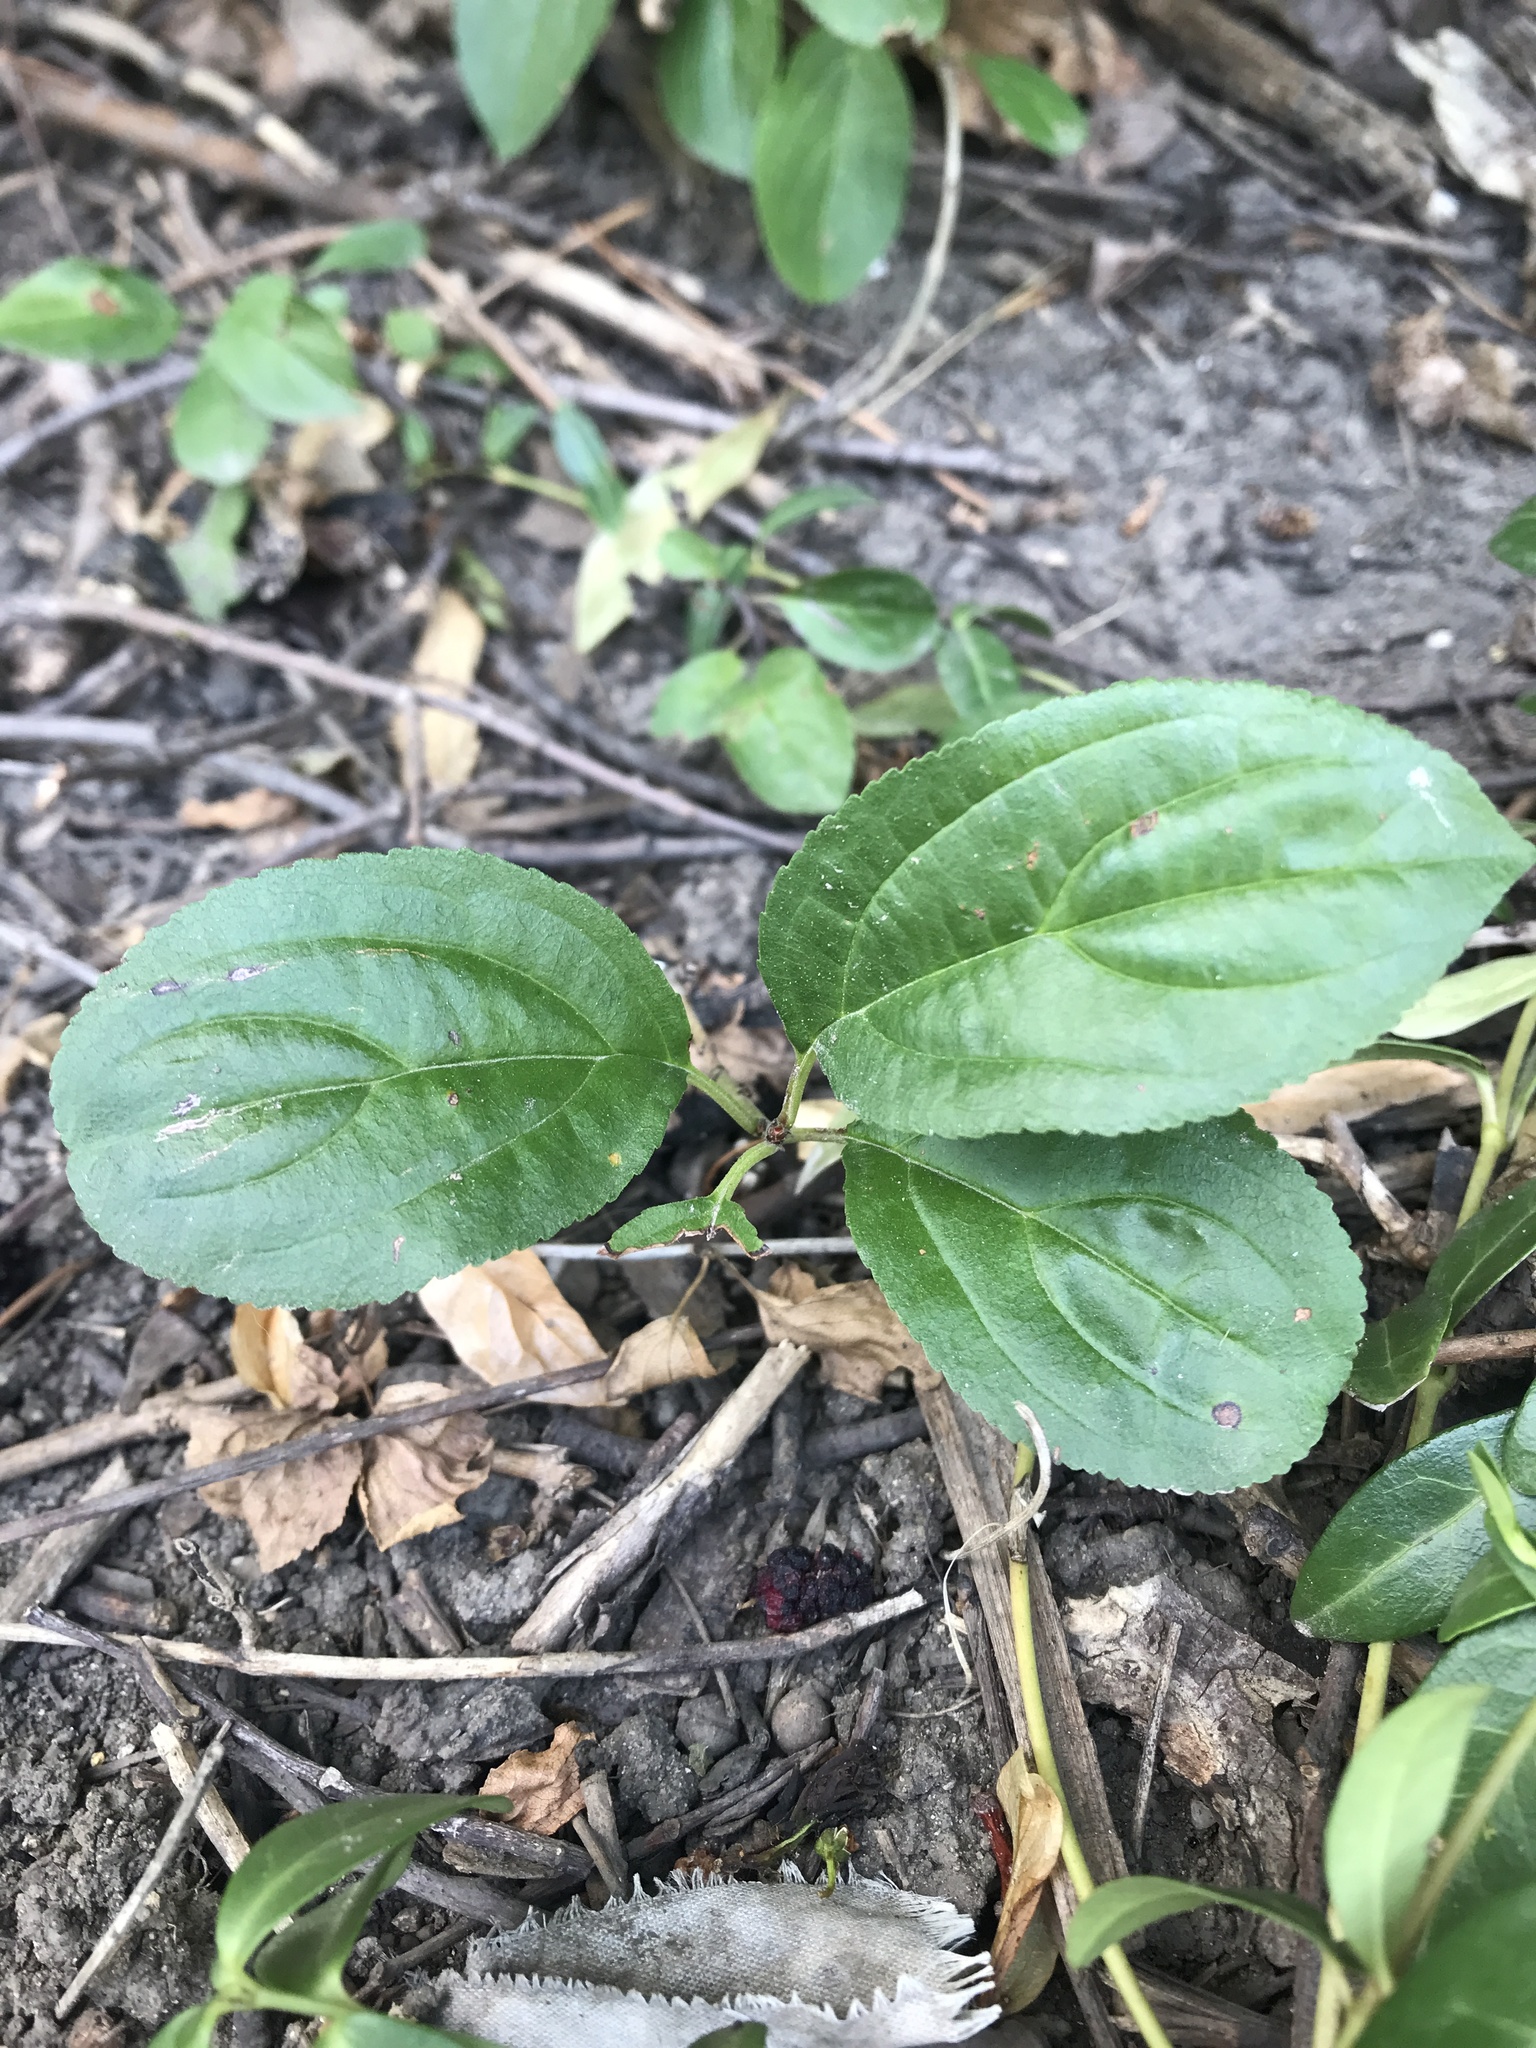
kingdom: Plantae
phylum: Tracheophyta
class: Magnoliopsida
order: Rosales
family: Rhamnaceae
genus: Rhamnus
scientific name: Rhamnus cathartica
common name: Common buckthorn
